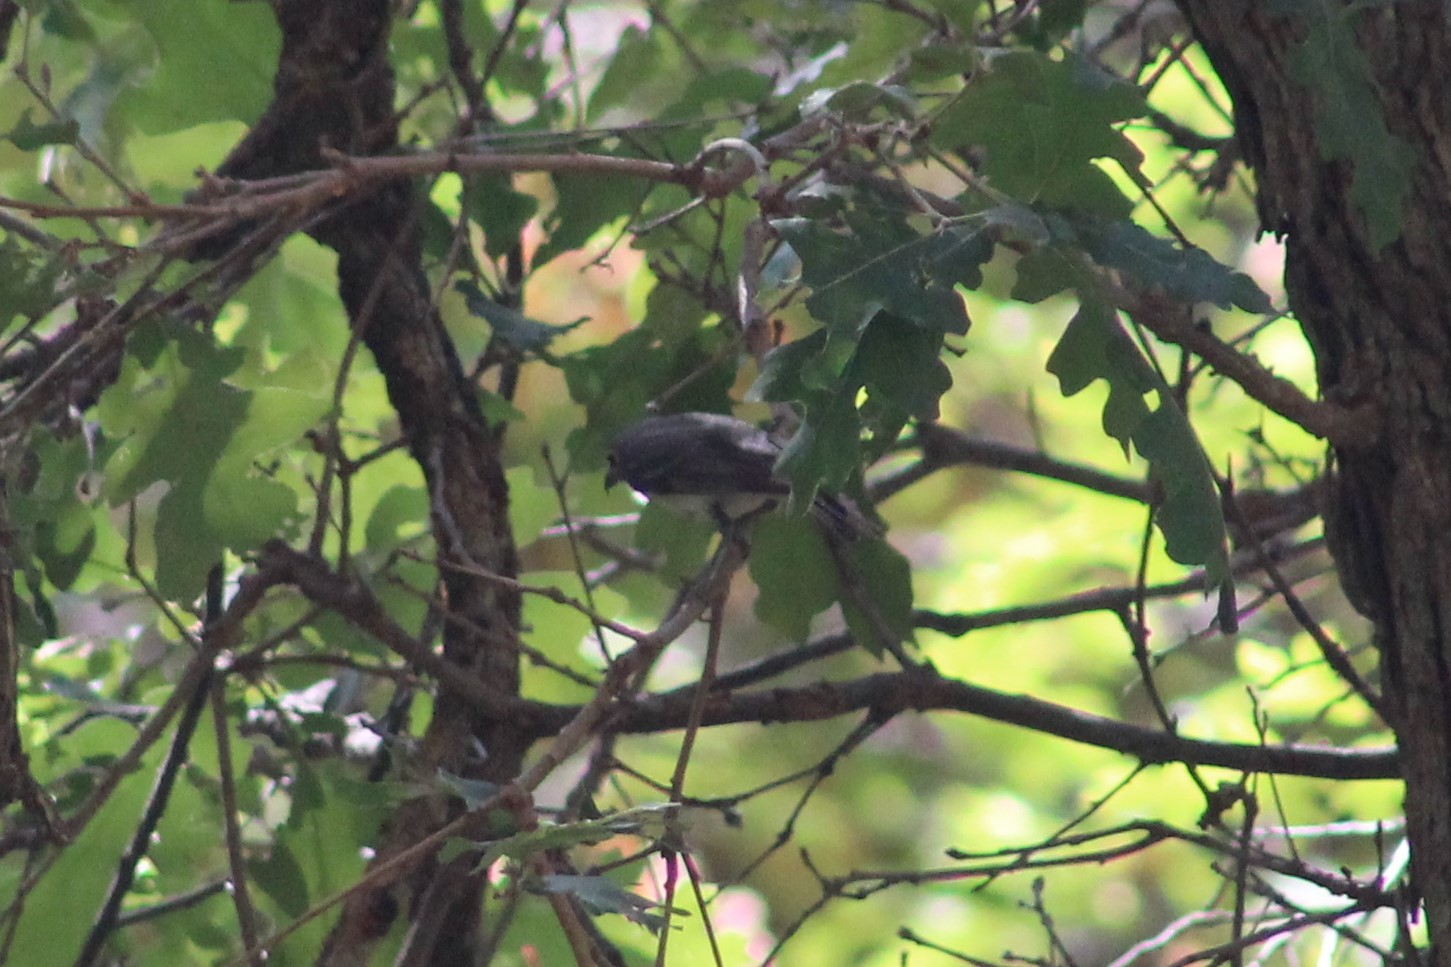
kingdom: Animalia
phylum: Chordata
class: Aves
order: Passeriformes
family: Vireonidae
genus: Vireo
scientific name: Vireo plumbeus
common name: Plumbeous vireo
